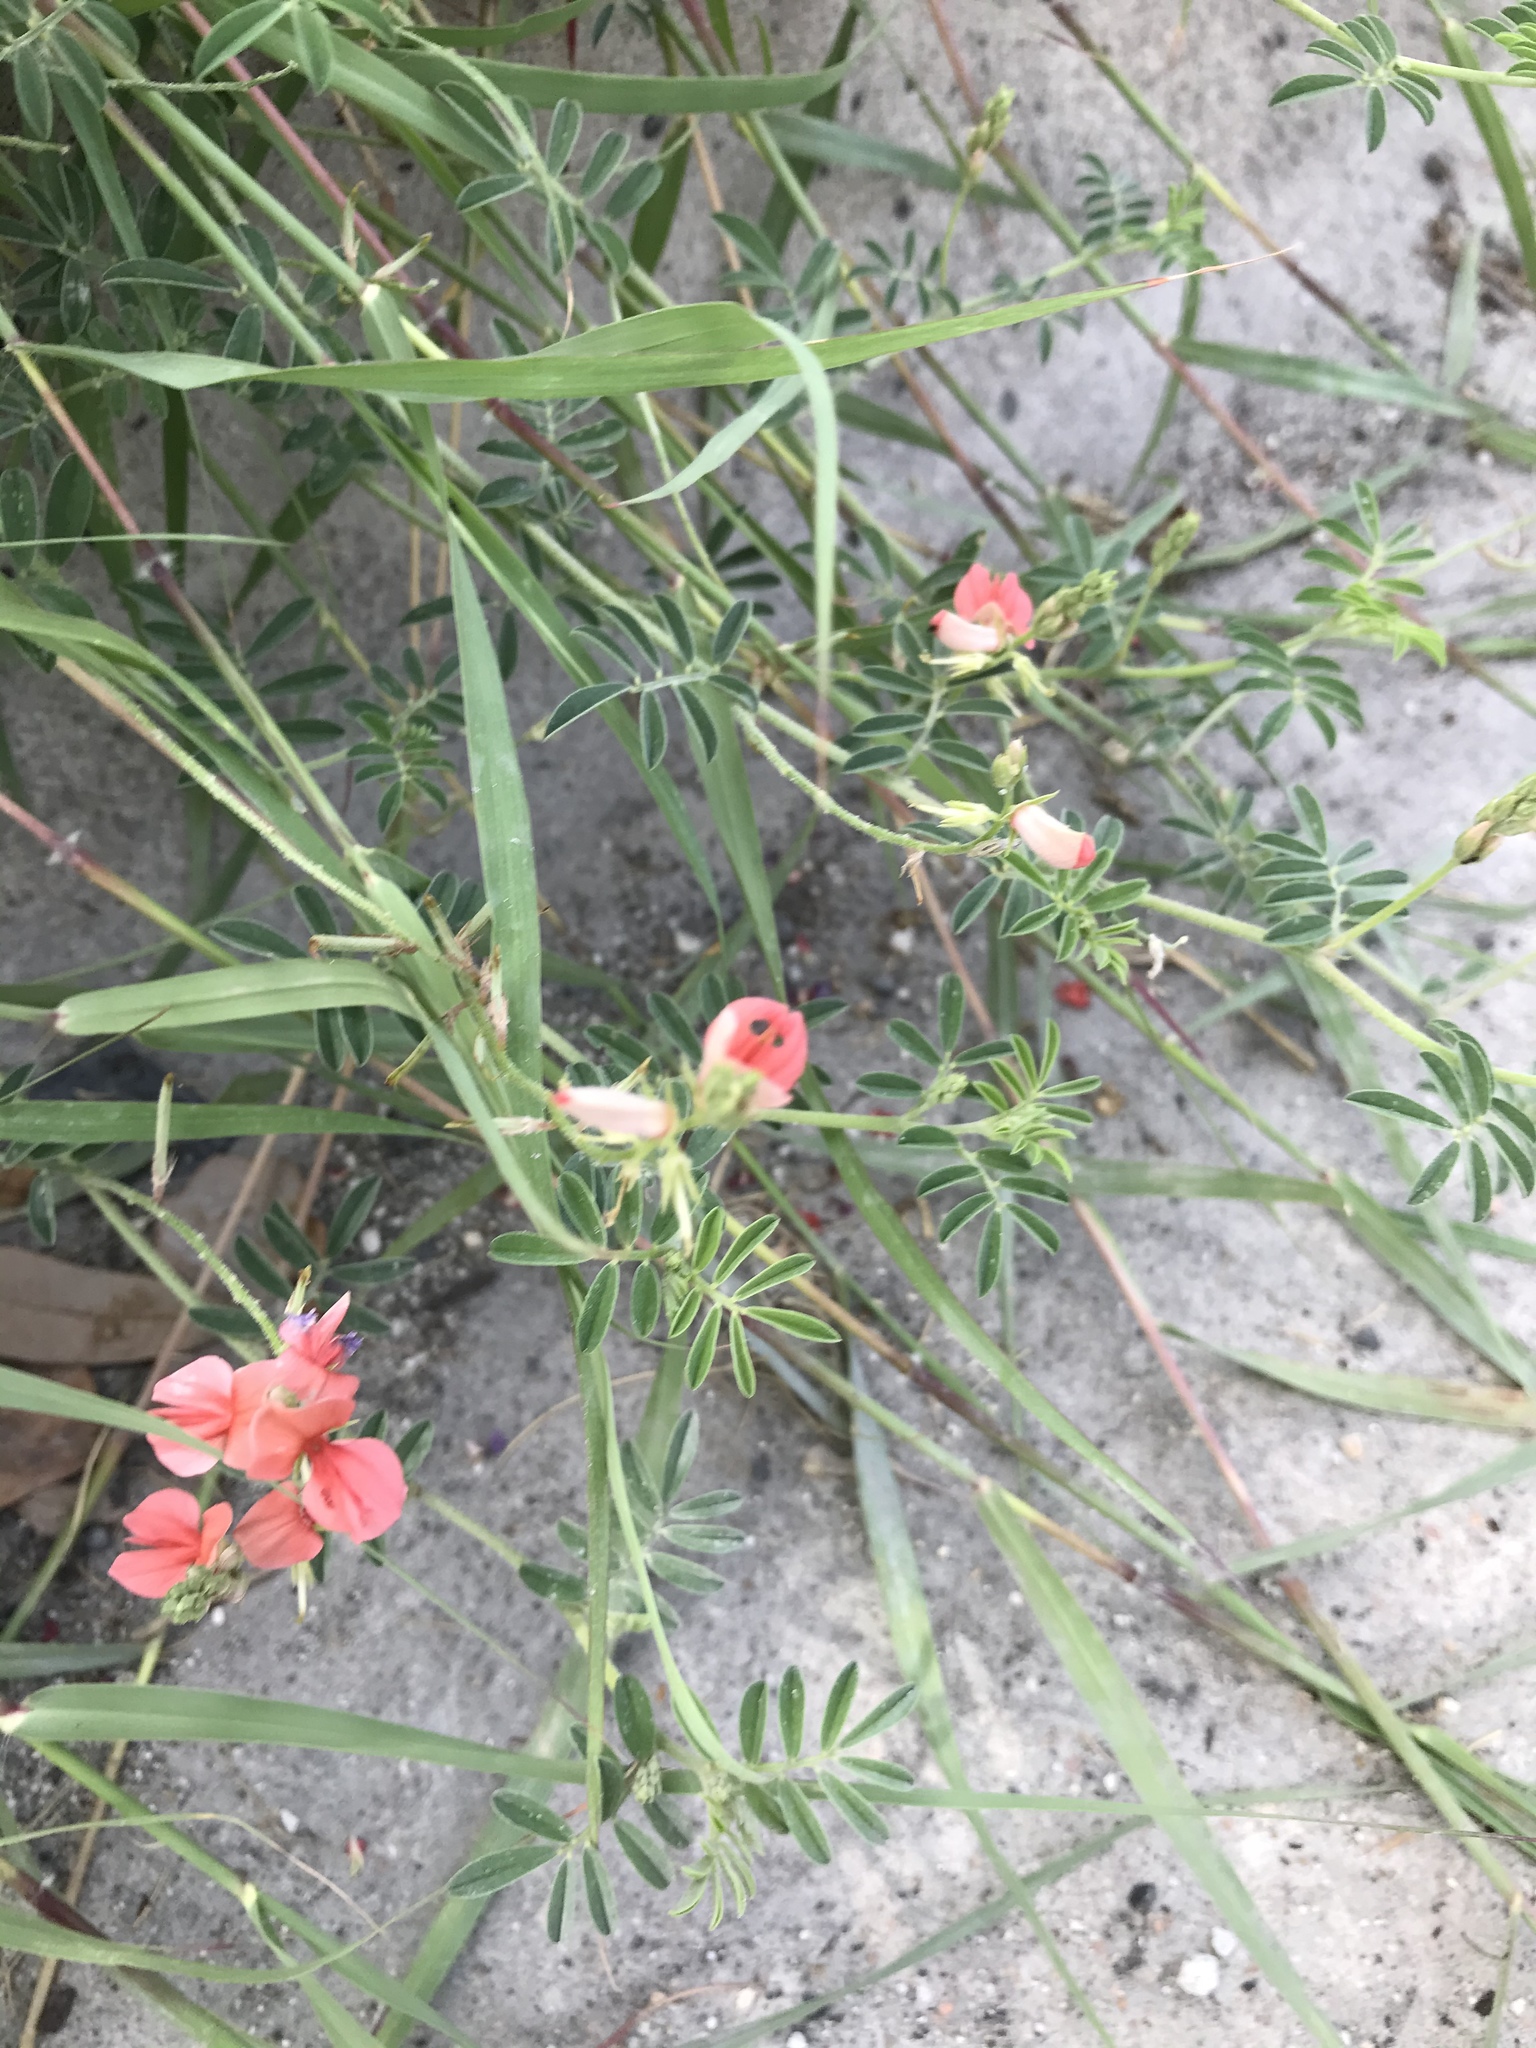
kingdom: Plantae
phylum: Tracheophyta
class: Magnoliopsida
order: Fabales
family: Fabaceae
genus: Indigofera
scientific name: Indigofera miniata
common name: Coast indigo
